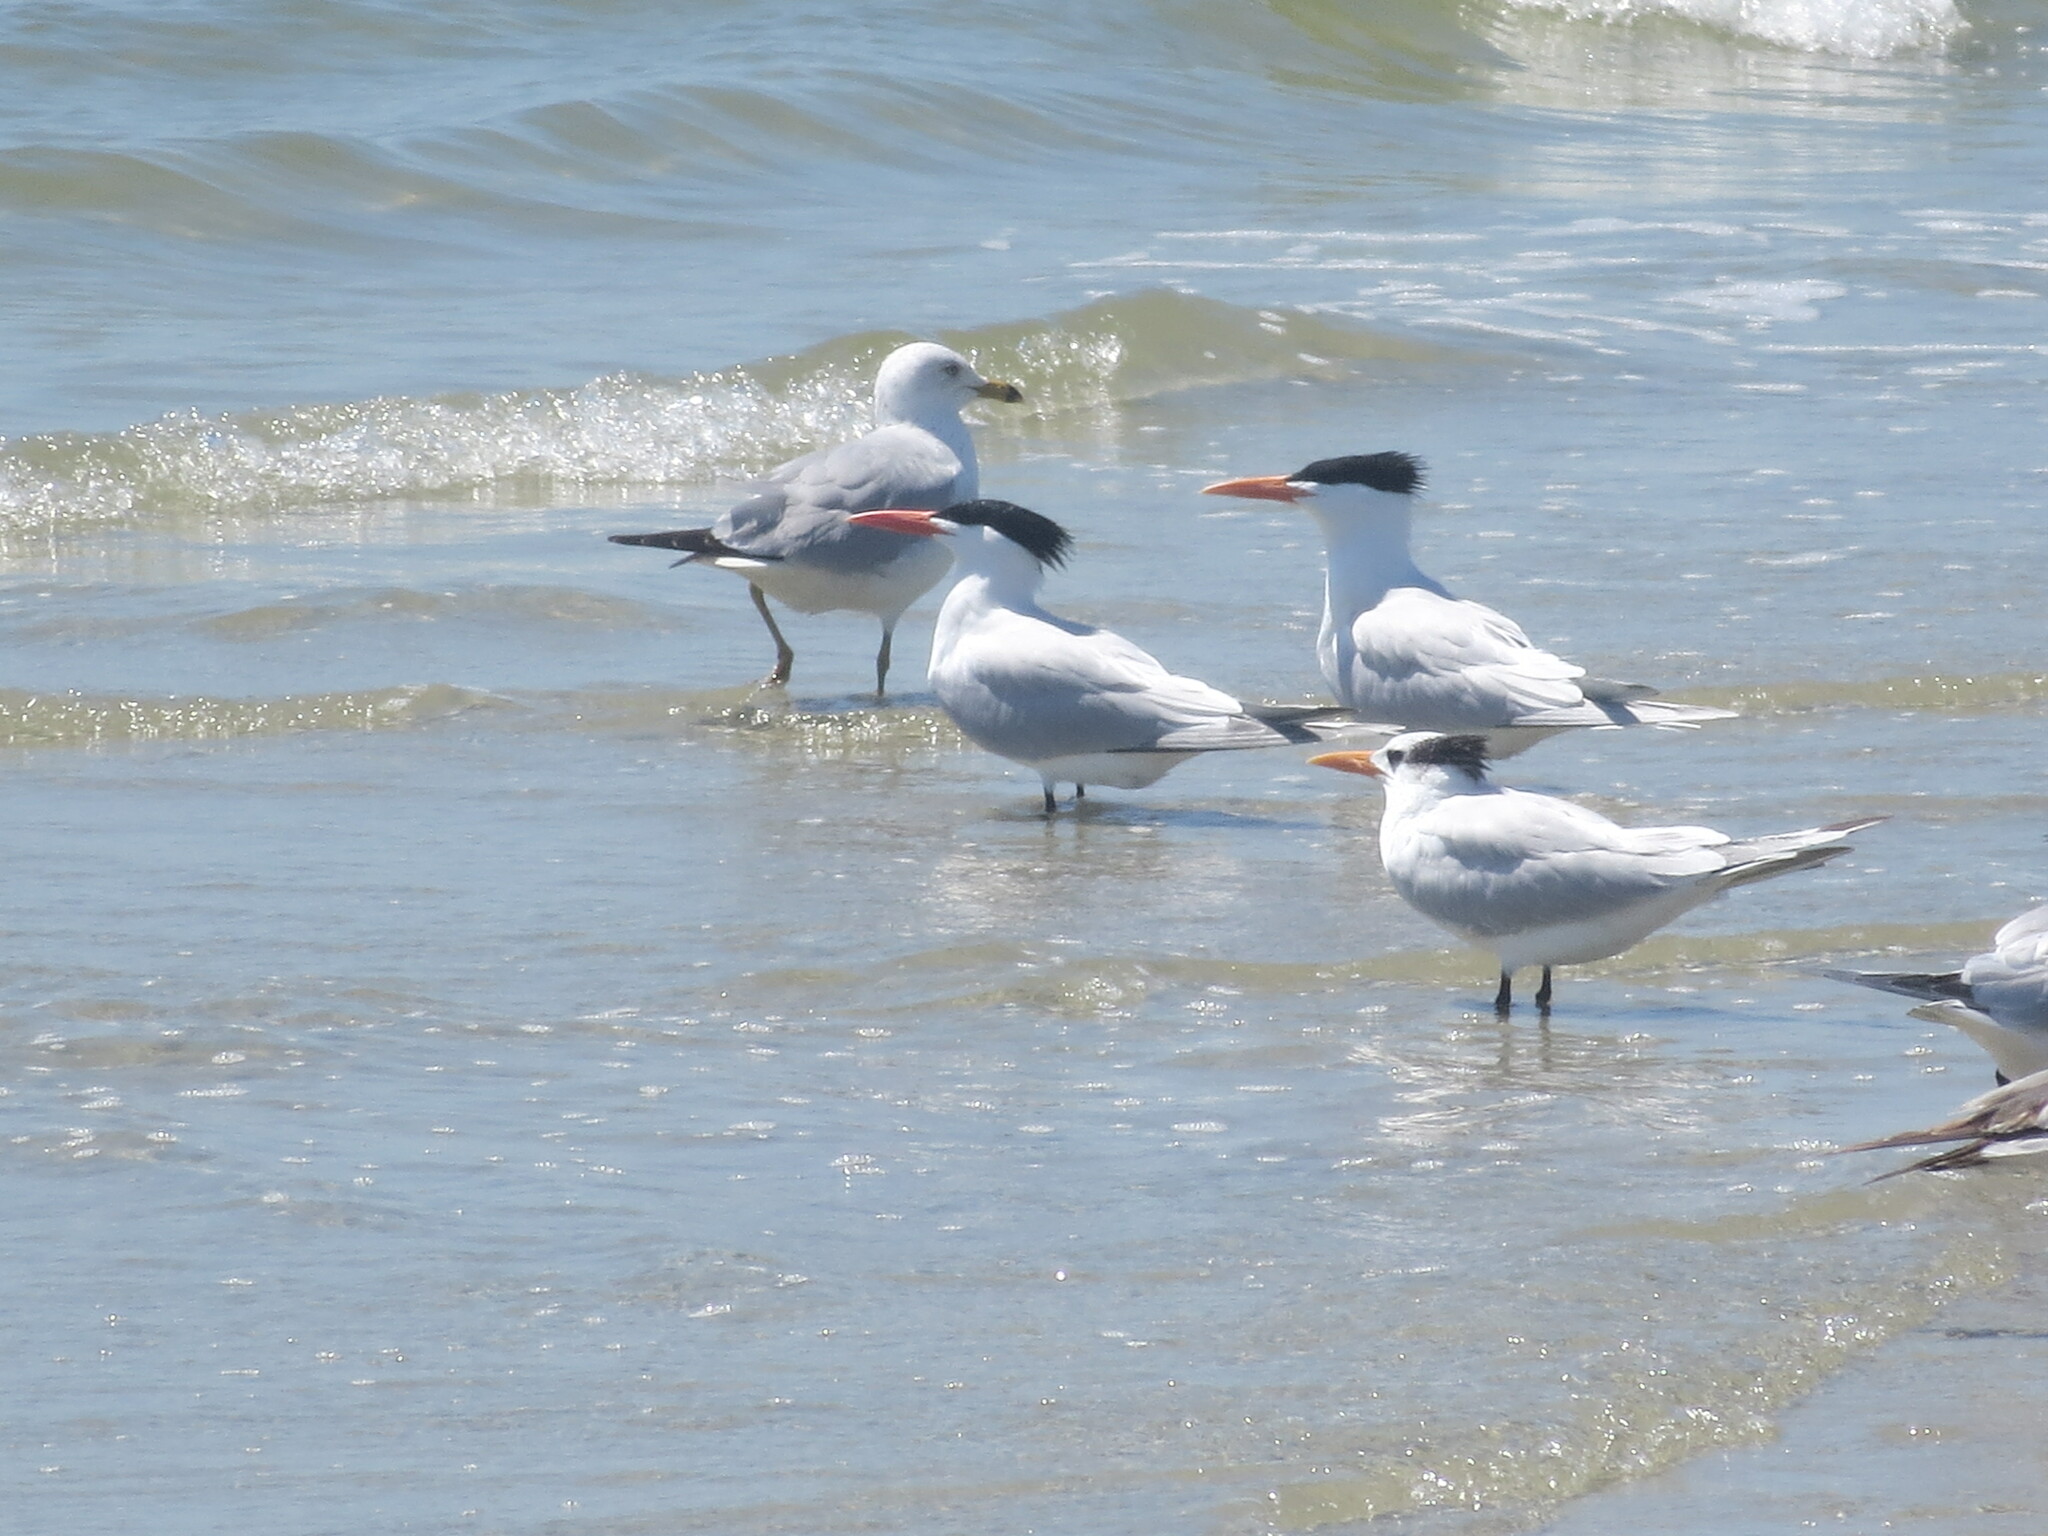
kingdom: Animalia
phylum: Chordata
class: Aves
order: Charadriiformes
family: Laridae
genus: Larus
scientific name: Larus delawarensis
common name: Ring-billed gull
